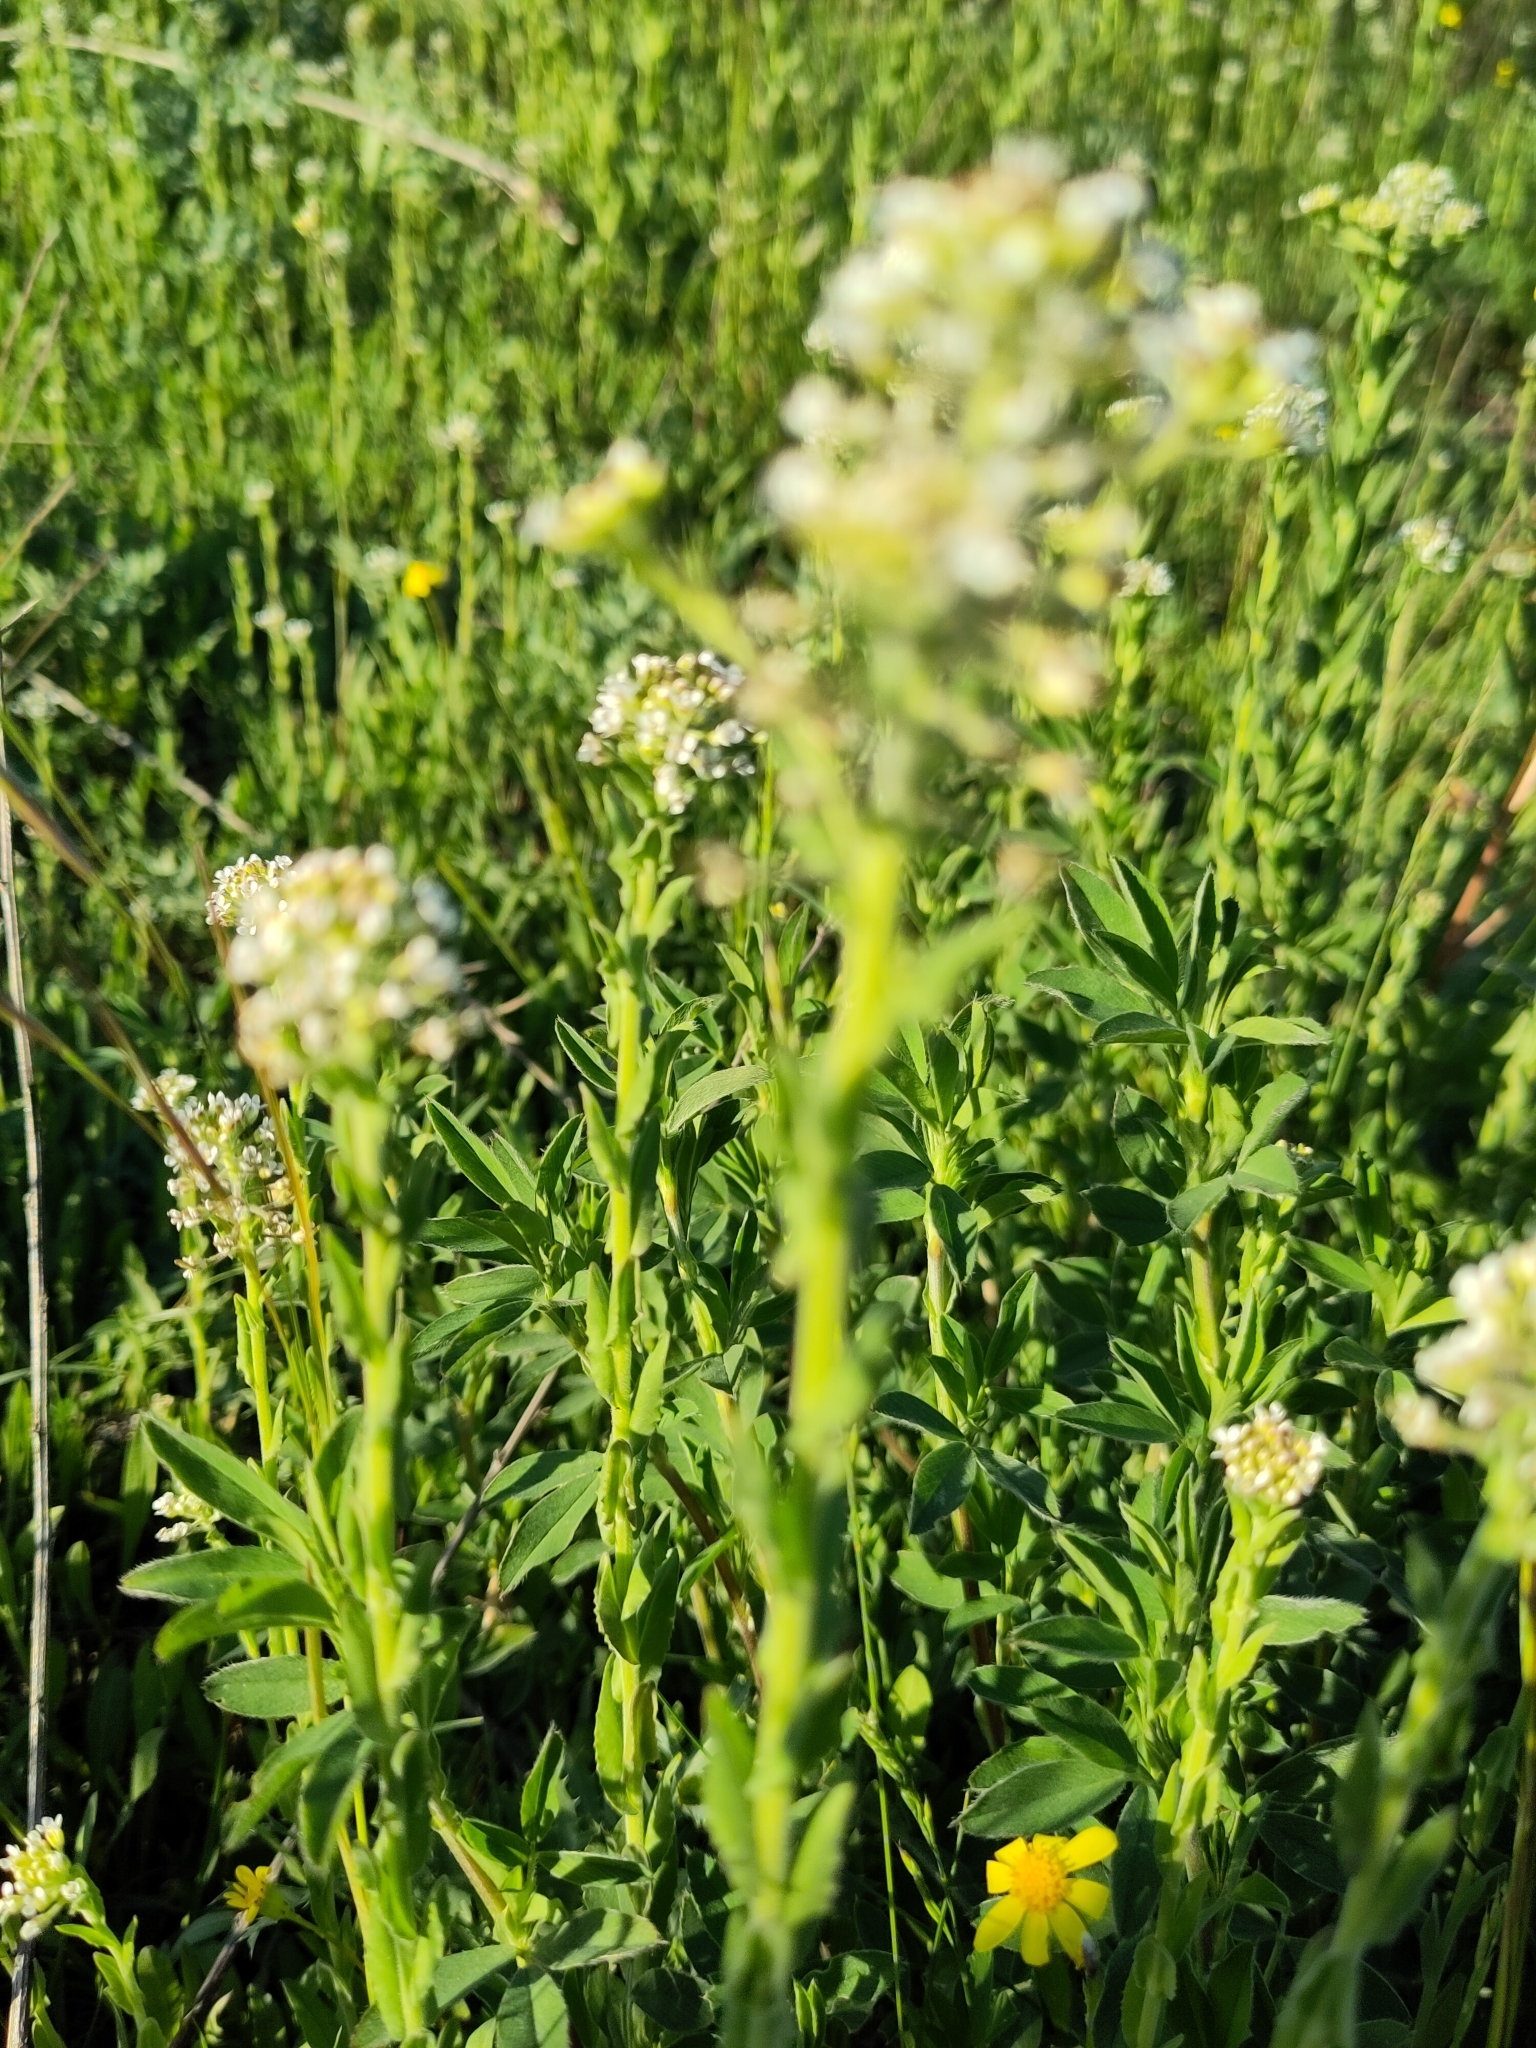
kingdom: Plantae
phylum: Tracheophyta
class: Magnoliopsida
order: Brassicales
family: Brassicaceae
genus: Lepidium
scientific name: Lepidium campestre
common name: Field pepperwort
